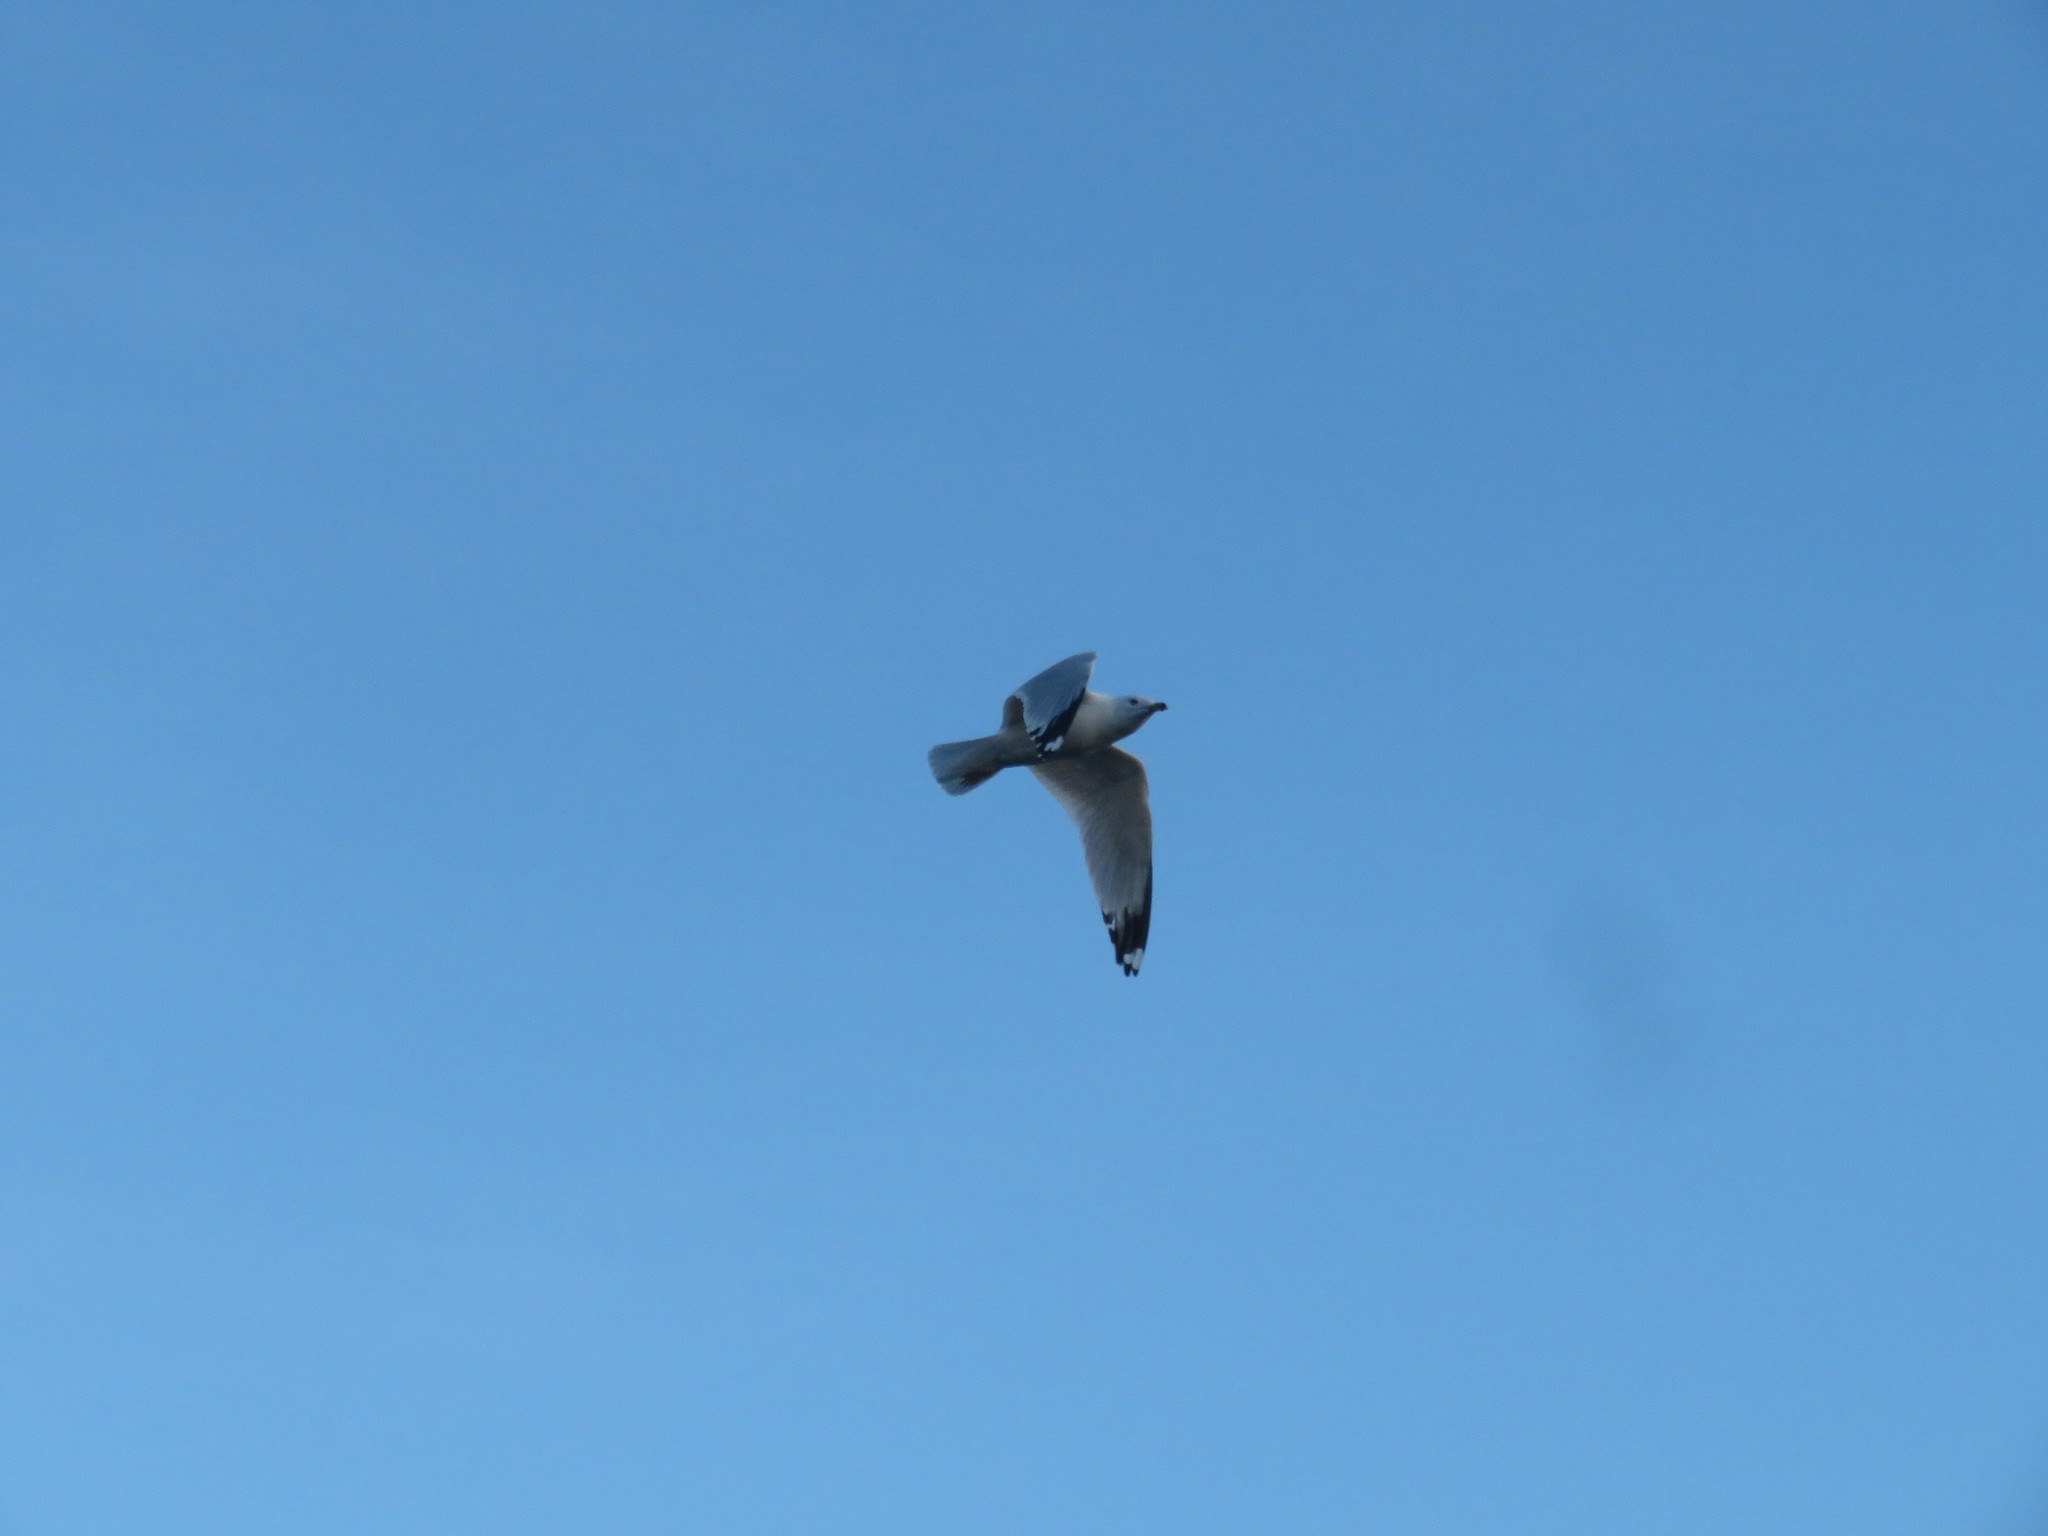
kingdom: Animalia
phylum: Chordata
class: Aves
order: Charadriiformes
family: Laridae
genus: Larus
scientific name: Larus delawarensis
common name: Ring-billed gull
